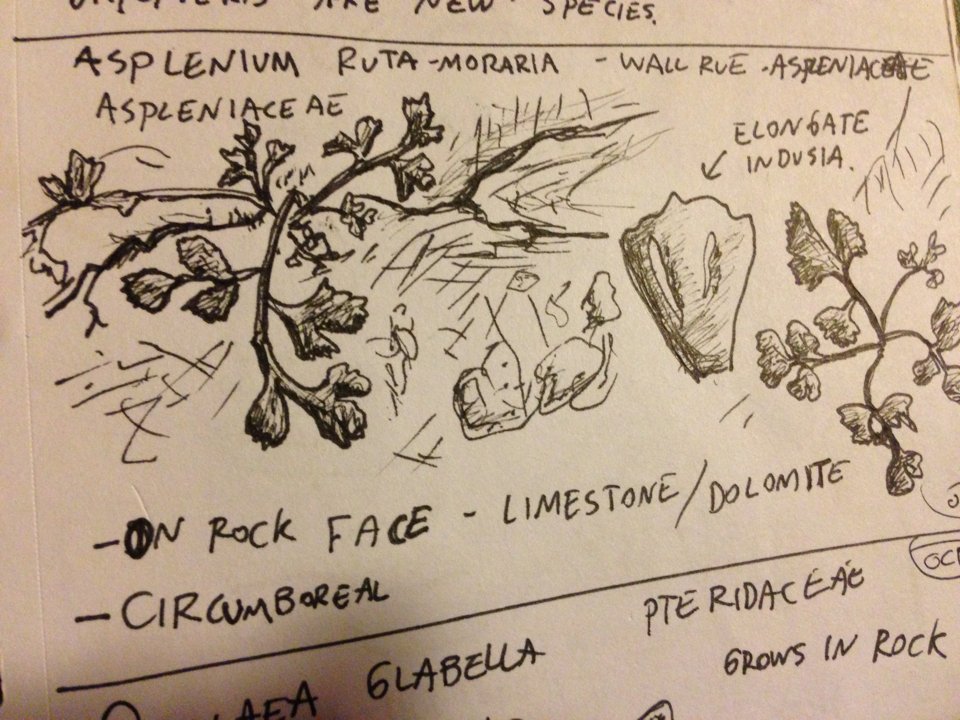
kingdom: Plantae
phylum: Tracheophyta
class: Polypodiopsida
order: Polypodiales
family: Aspleniaceae
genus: Asplenium
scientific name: Asplenium ruta-muraria
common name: Wall-rue
